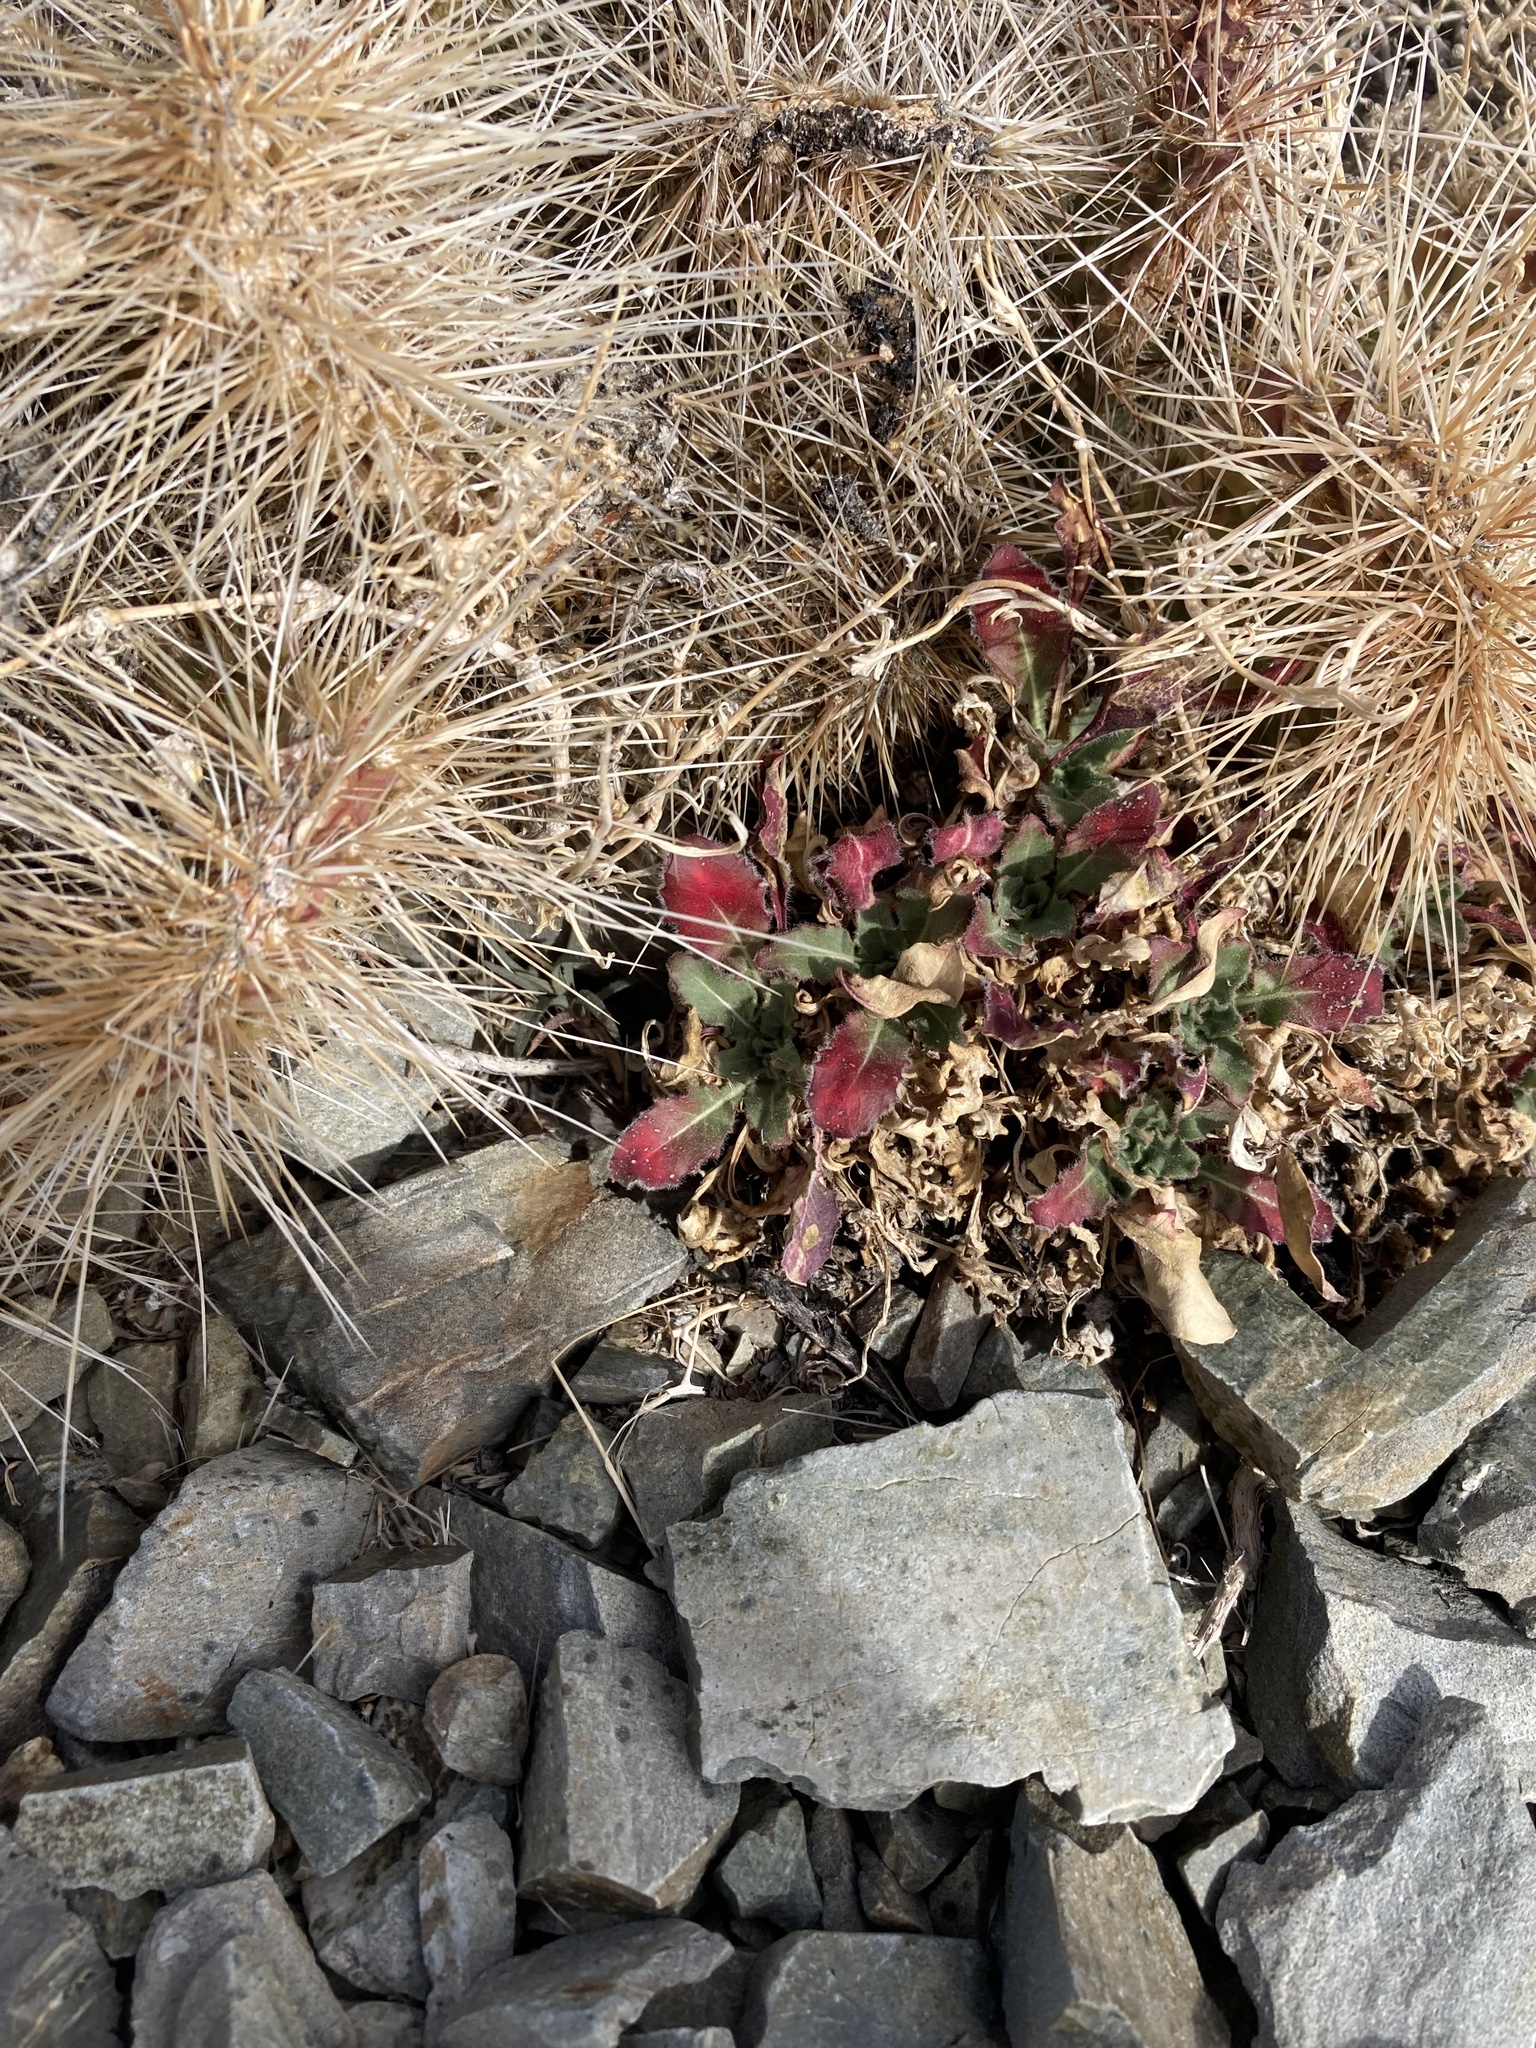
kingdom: Plantae
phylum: Tracheophyta
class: Magnoliopsida
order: Myrtales
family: Onagraceae
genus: Oenothera
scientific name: Oenothera cespitosa
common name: Tufted evening-primrose
